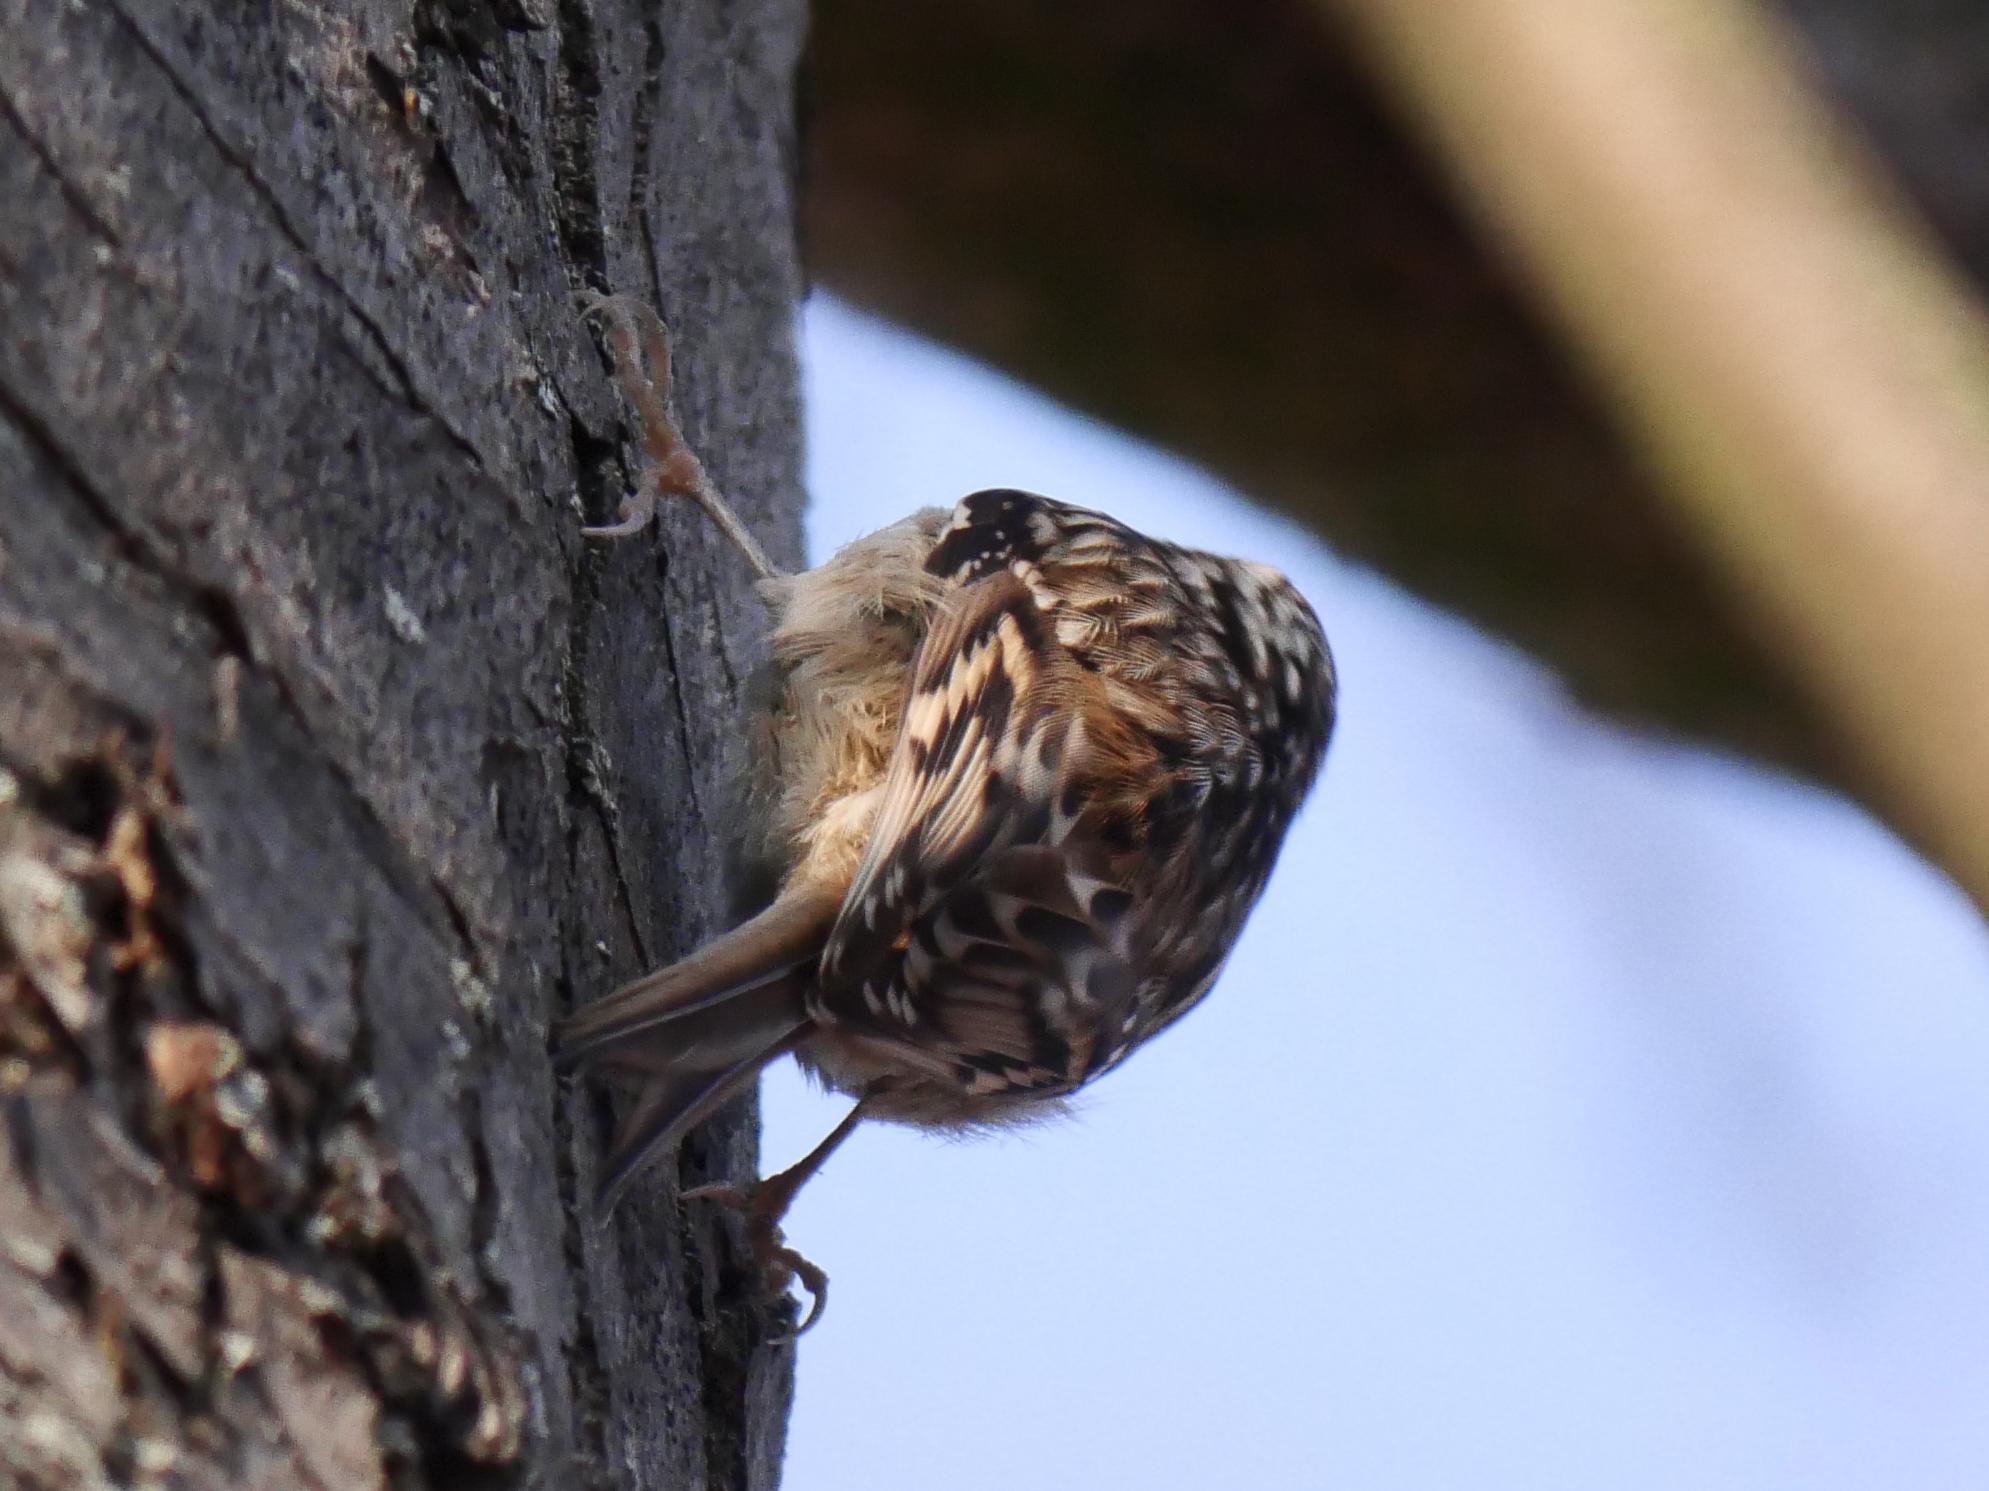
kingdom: Animalia
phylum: Chordata
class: Aves
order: Passeriformes
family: Certhiidae
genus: Certhia
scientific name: Certhia brachydactyla
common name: Short-toed treecreeper
